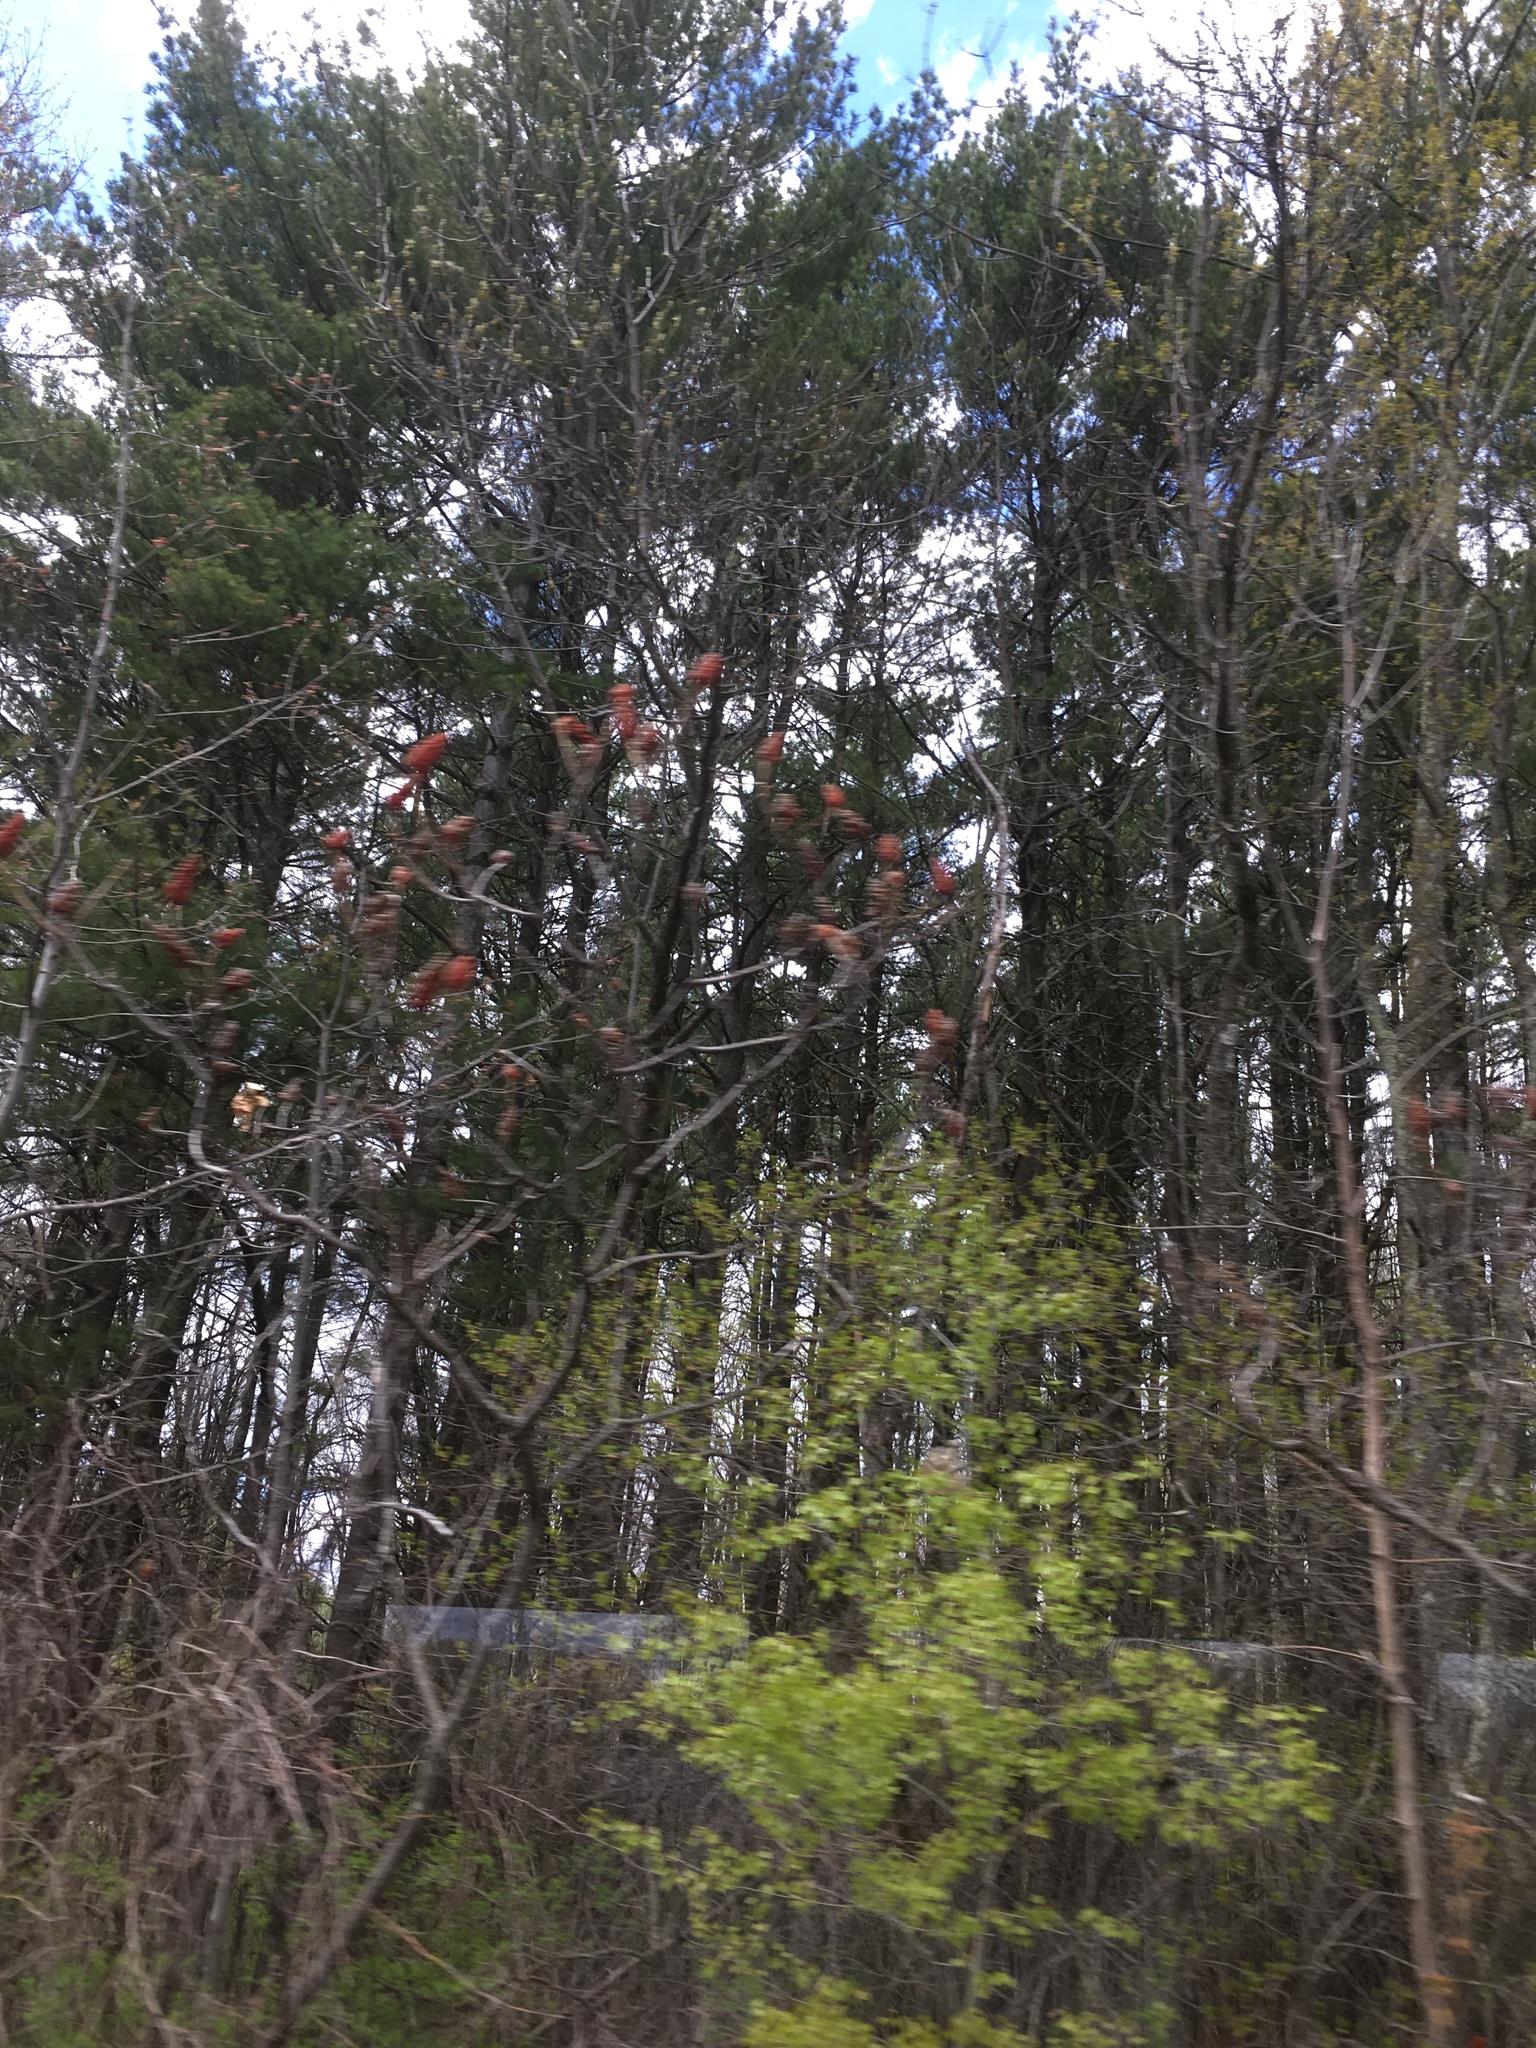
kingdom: Plantae
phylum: Tracheophyta
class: Pinopsida
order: Pinales
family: Pinaceae
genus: Pinus
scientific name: Pinus strobus
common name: Weymouth pine
